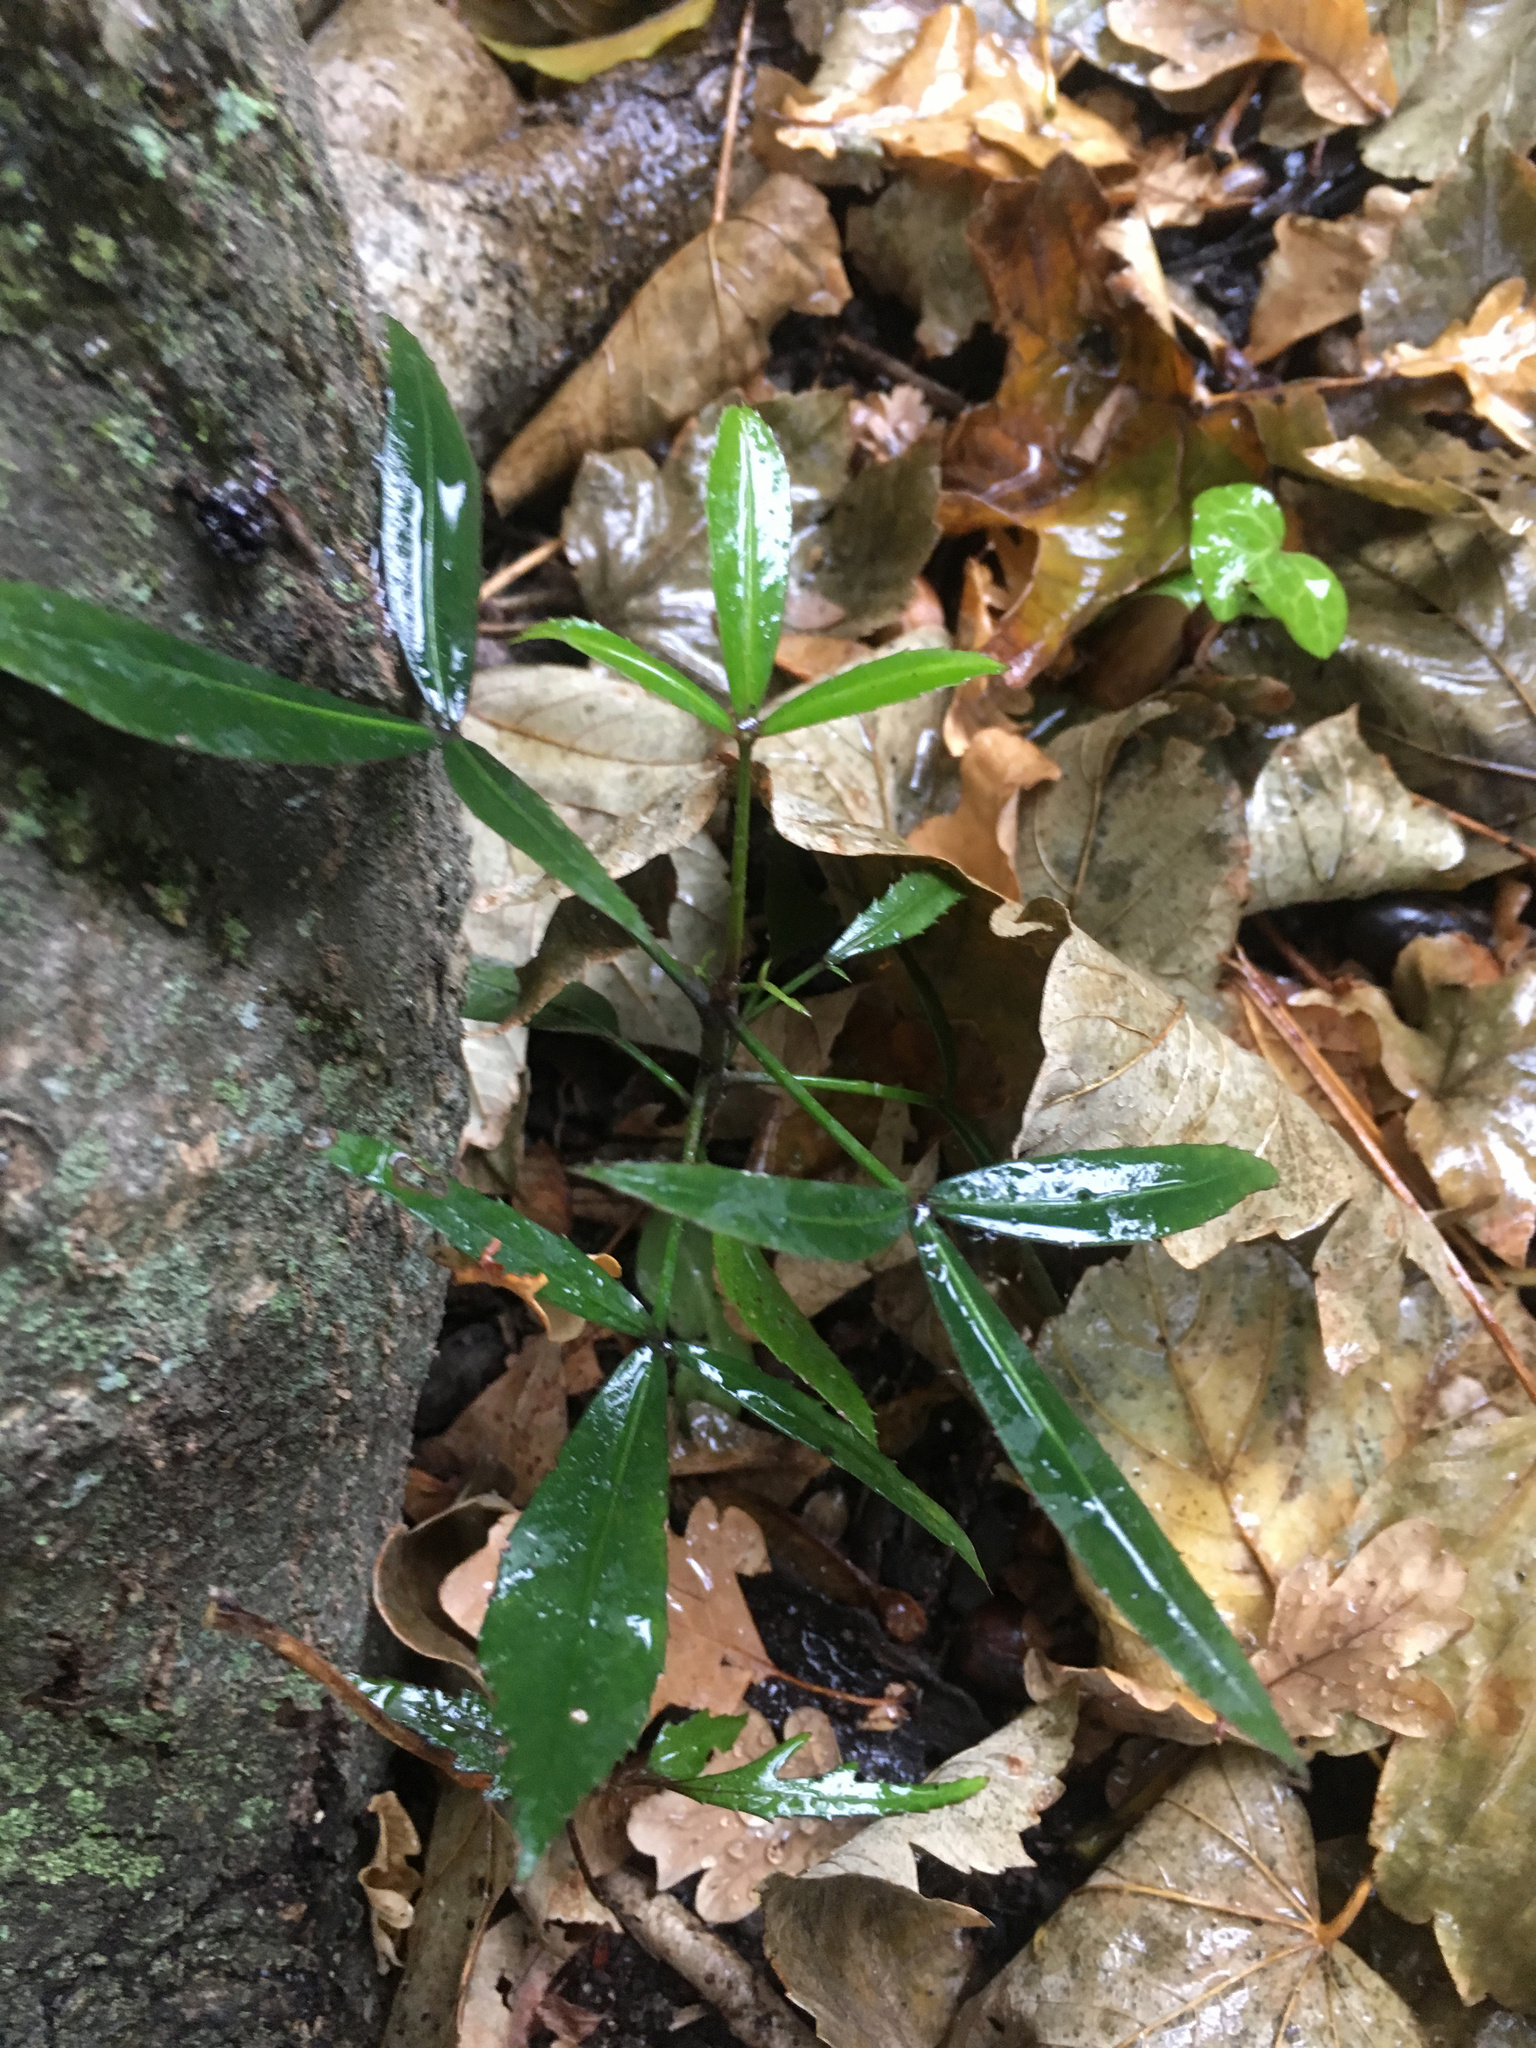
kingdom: Plantae
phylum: Tracheophyta
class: Magnoliopsida
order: Apiales
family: Araliaceae
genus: Pseudopanax
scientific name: Pseudopanax
